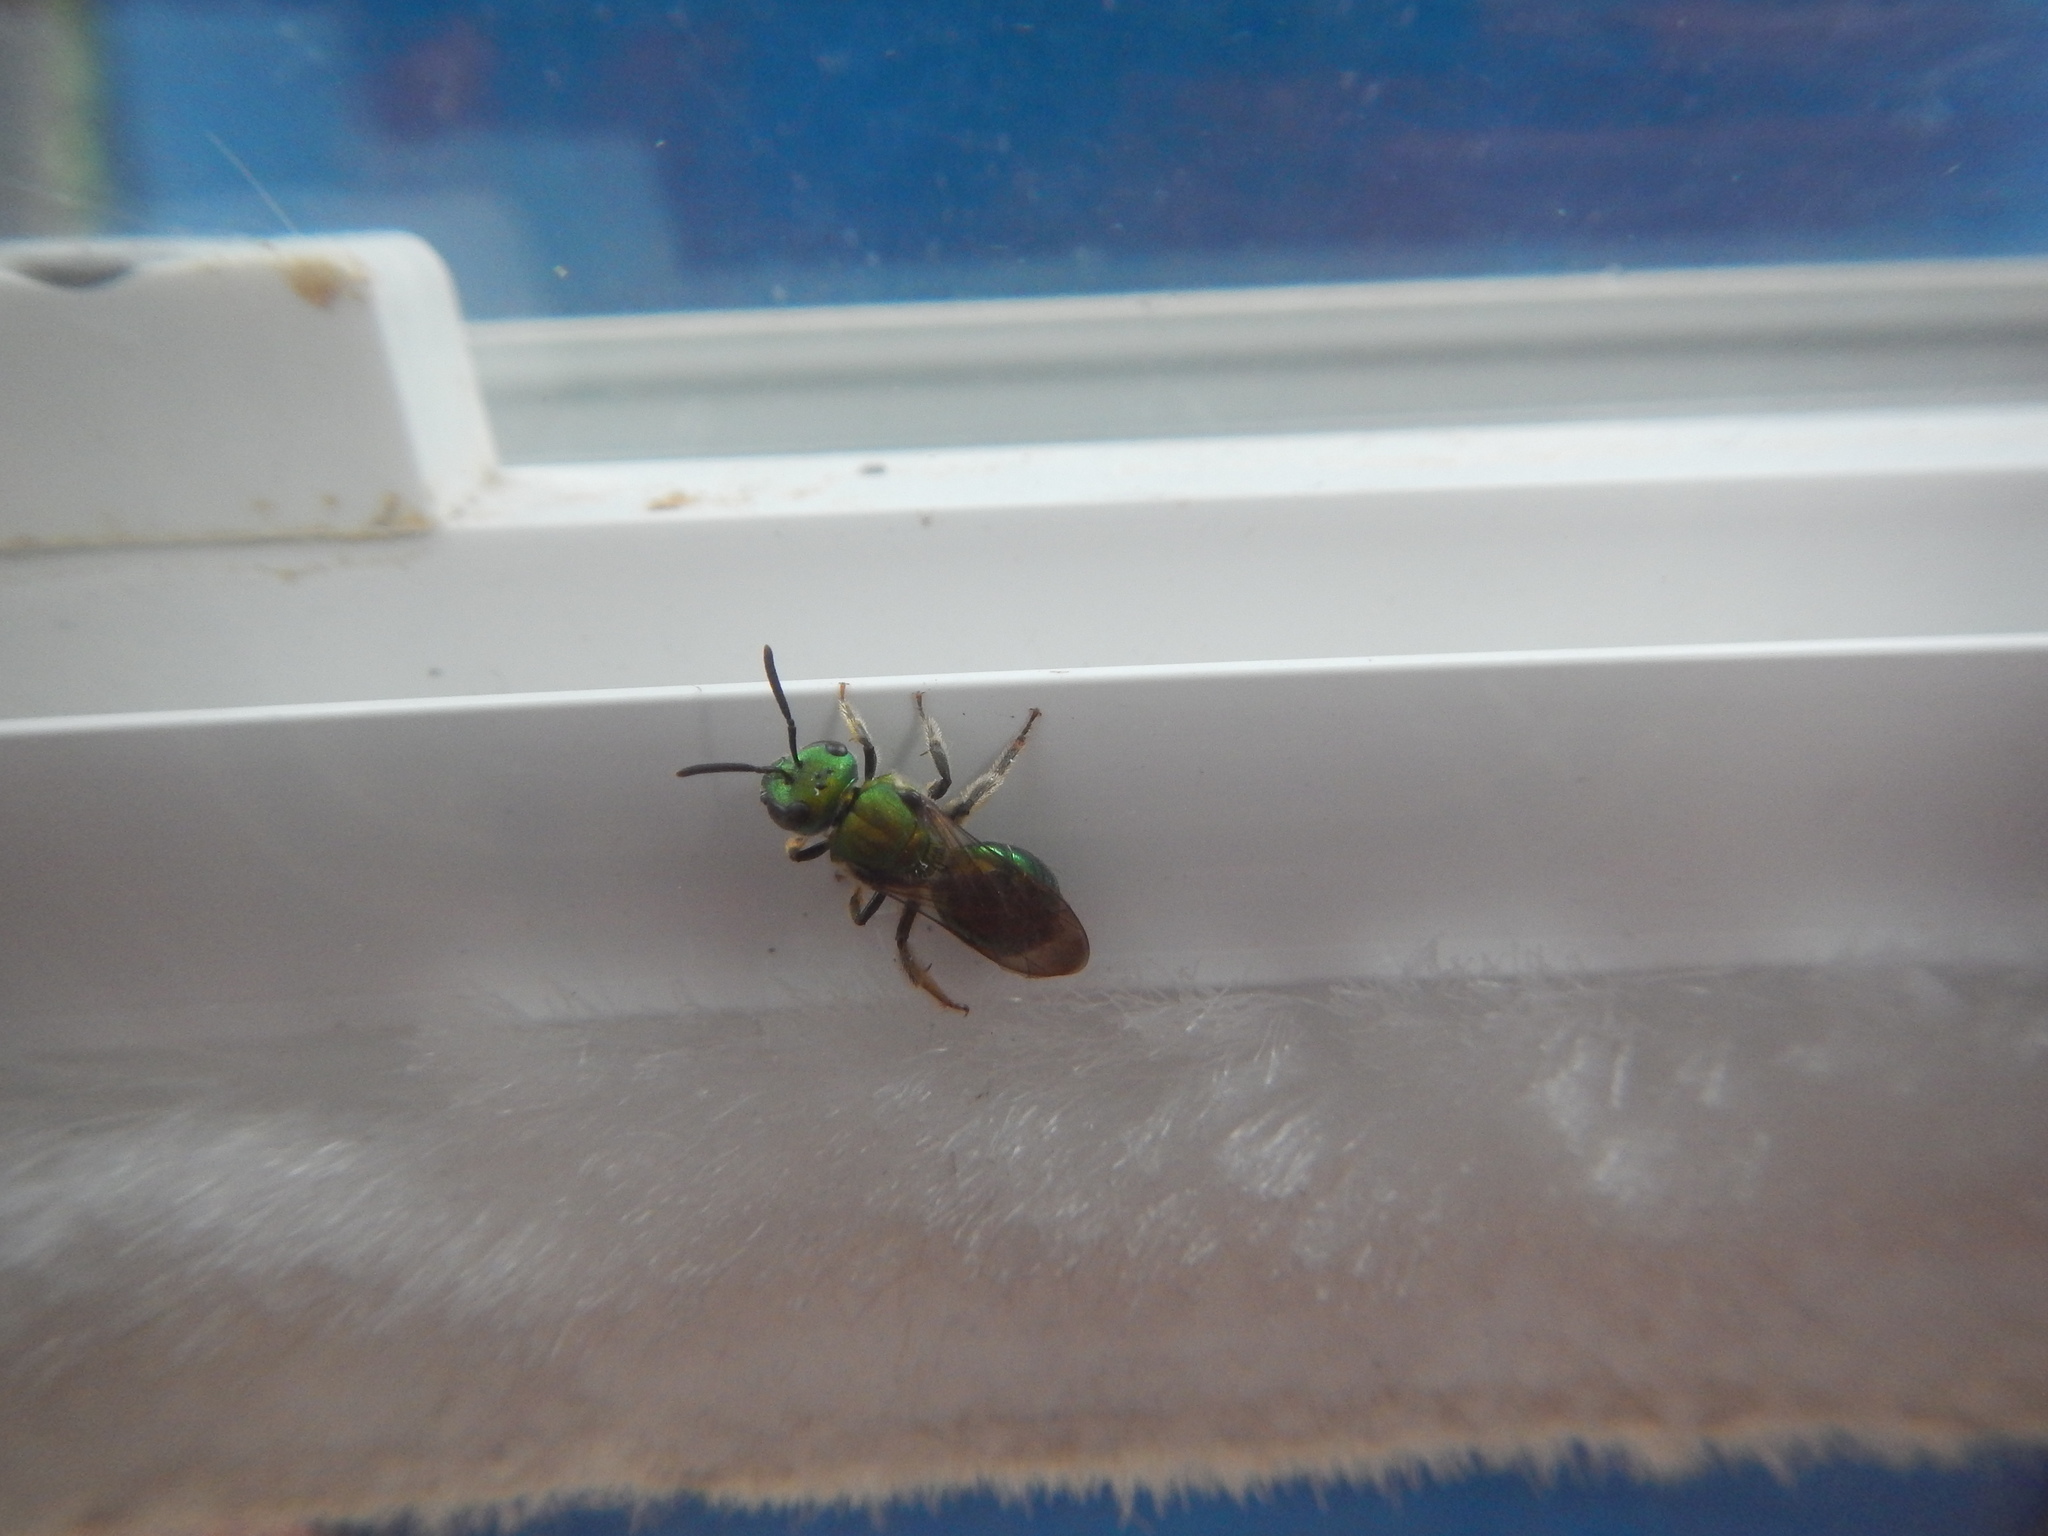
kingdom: Animalia
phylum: Arthropoda
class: Insecta
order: Hymenoptera
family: Halictidae
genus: Augochlora
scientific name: Augochlora pura
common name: Pure green sweat bee
